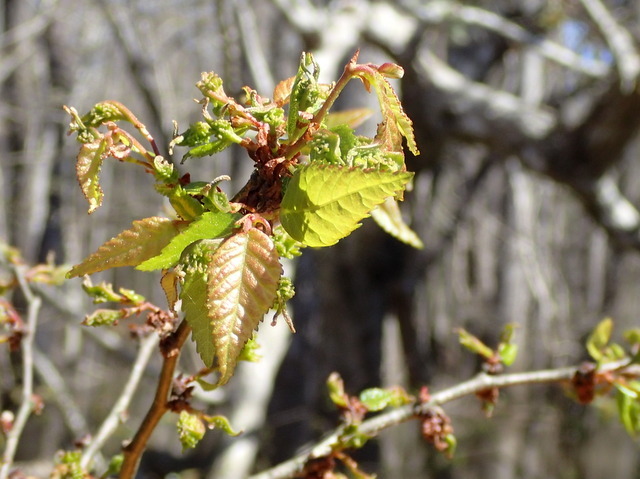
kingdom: Plantae
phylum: Tracheophyta
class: Magnoliopsida
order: Rosales
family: Ulmaceae
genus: Planera
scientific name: Planera aquatica
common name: Water-elm
